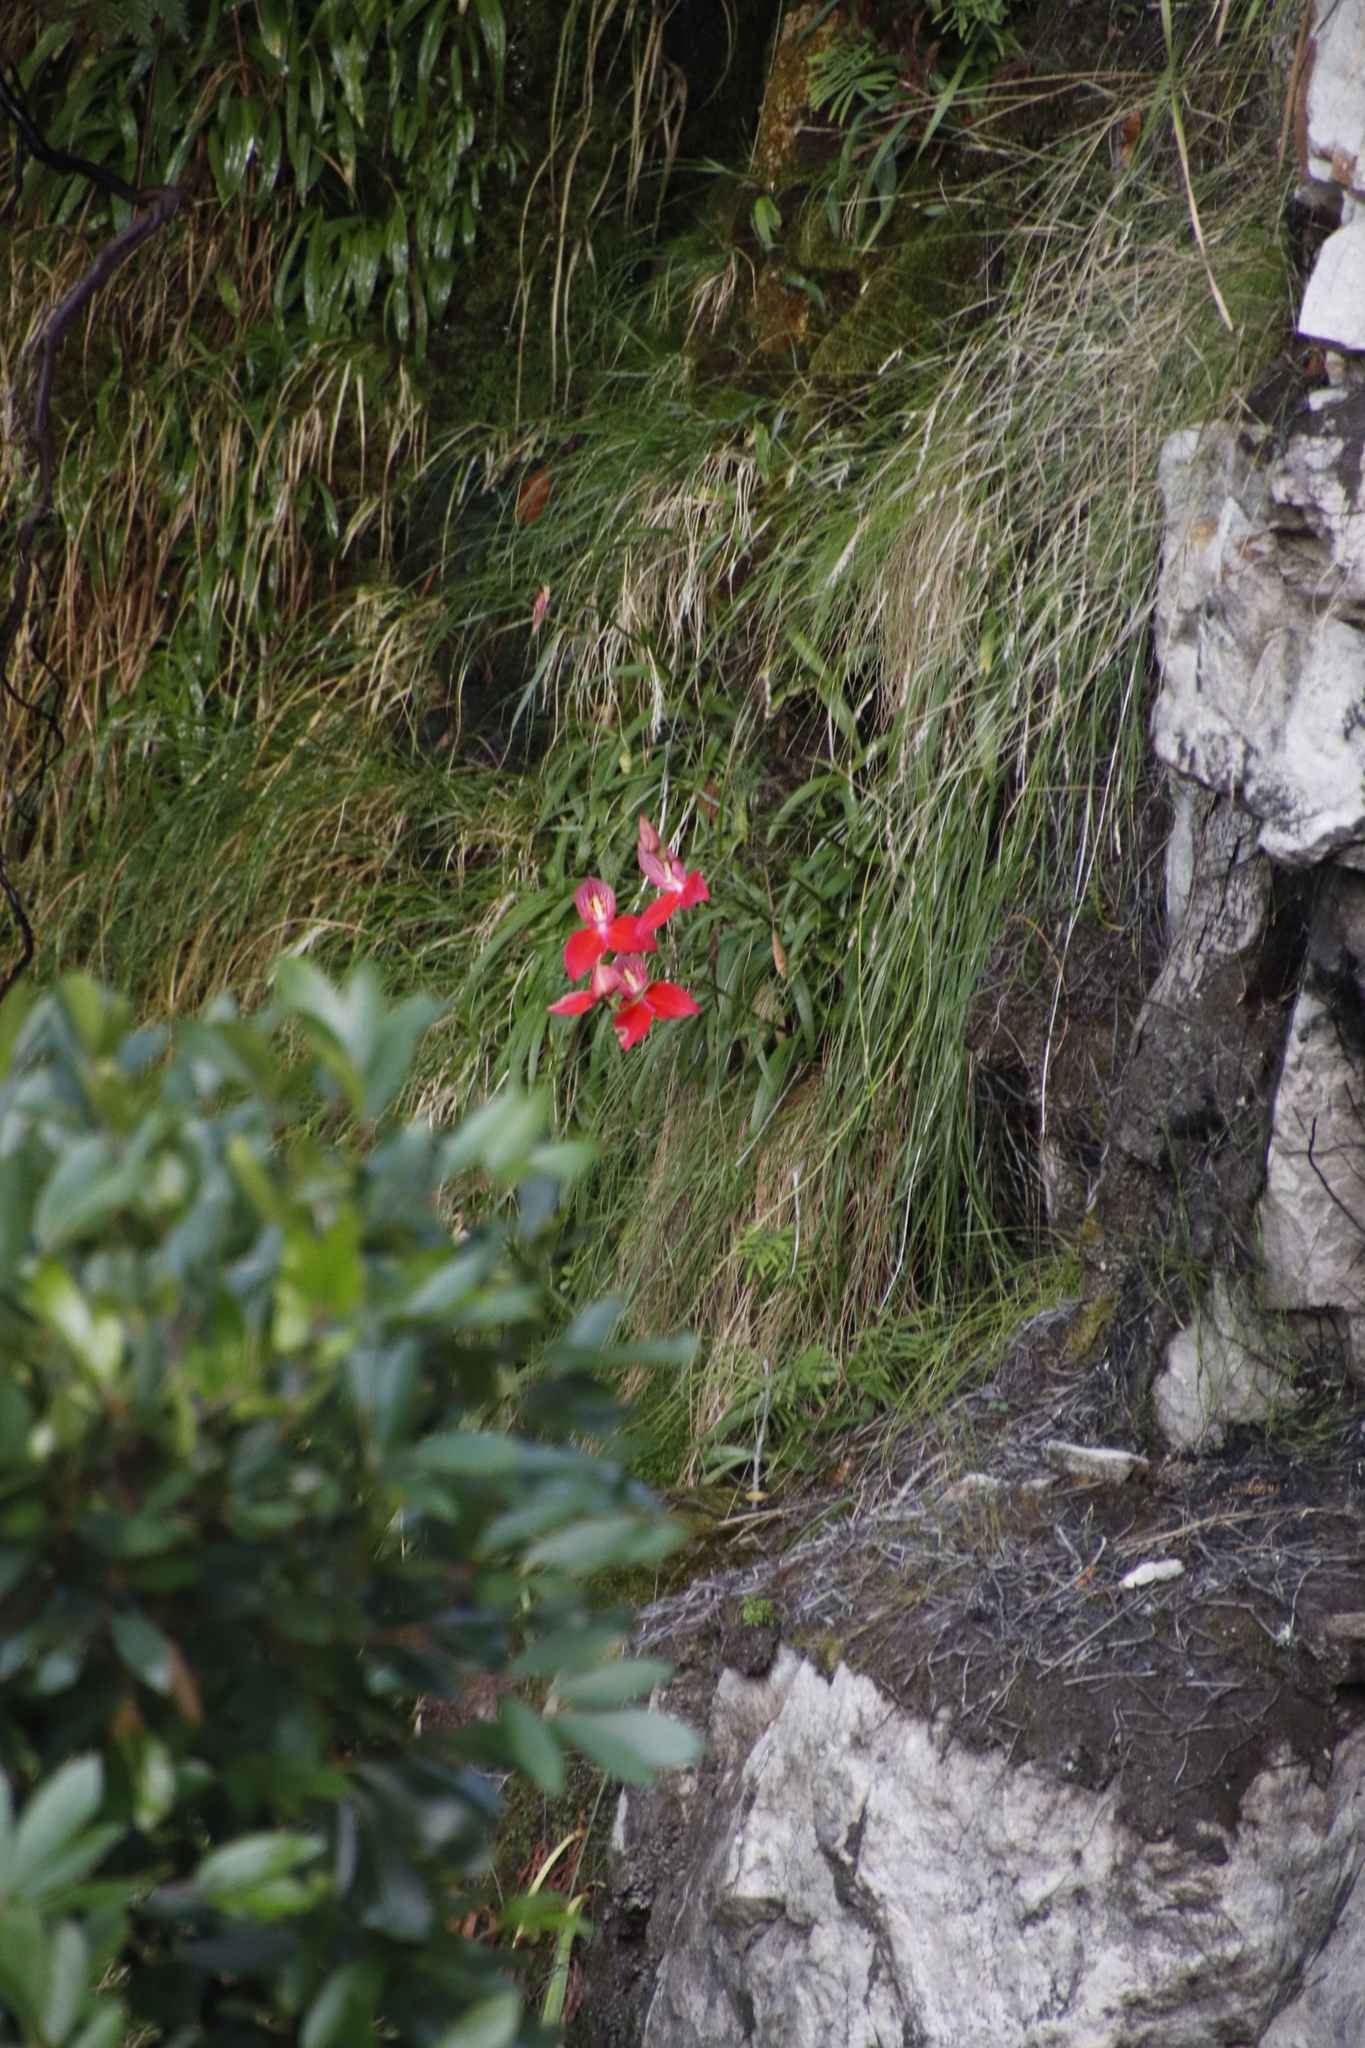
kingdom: Plantae
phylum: Tracheophyta
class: Liliopsida
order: Asparagales
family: Orchidaceae
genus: Disa
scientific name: Disa uniflora
